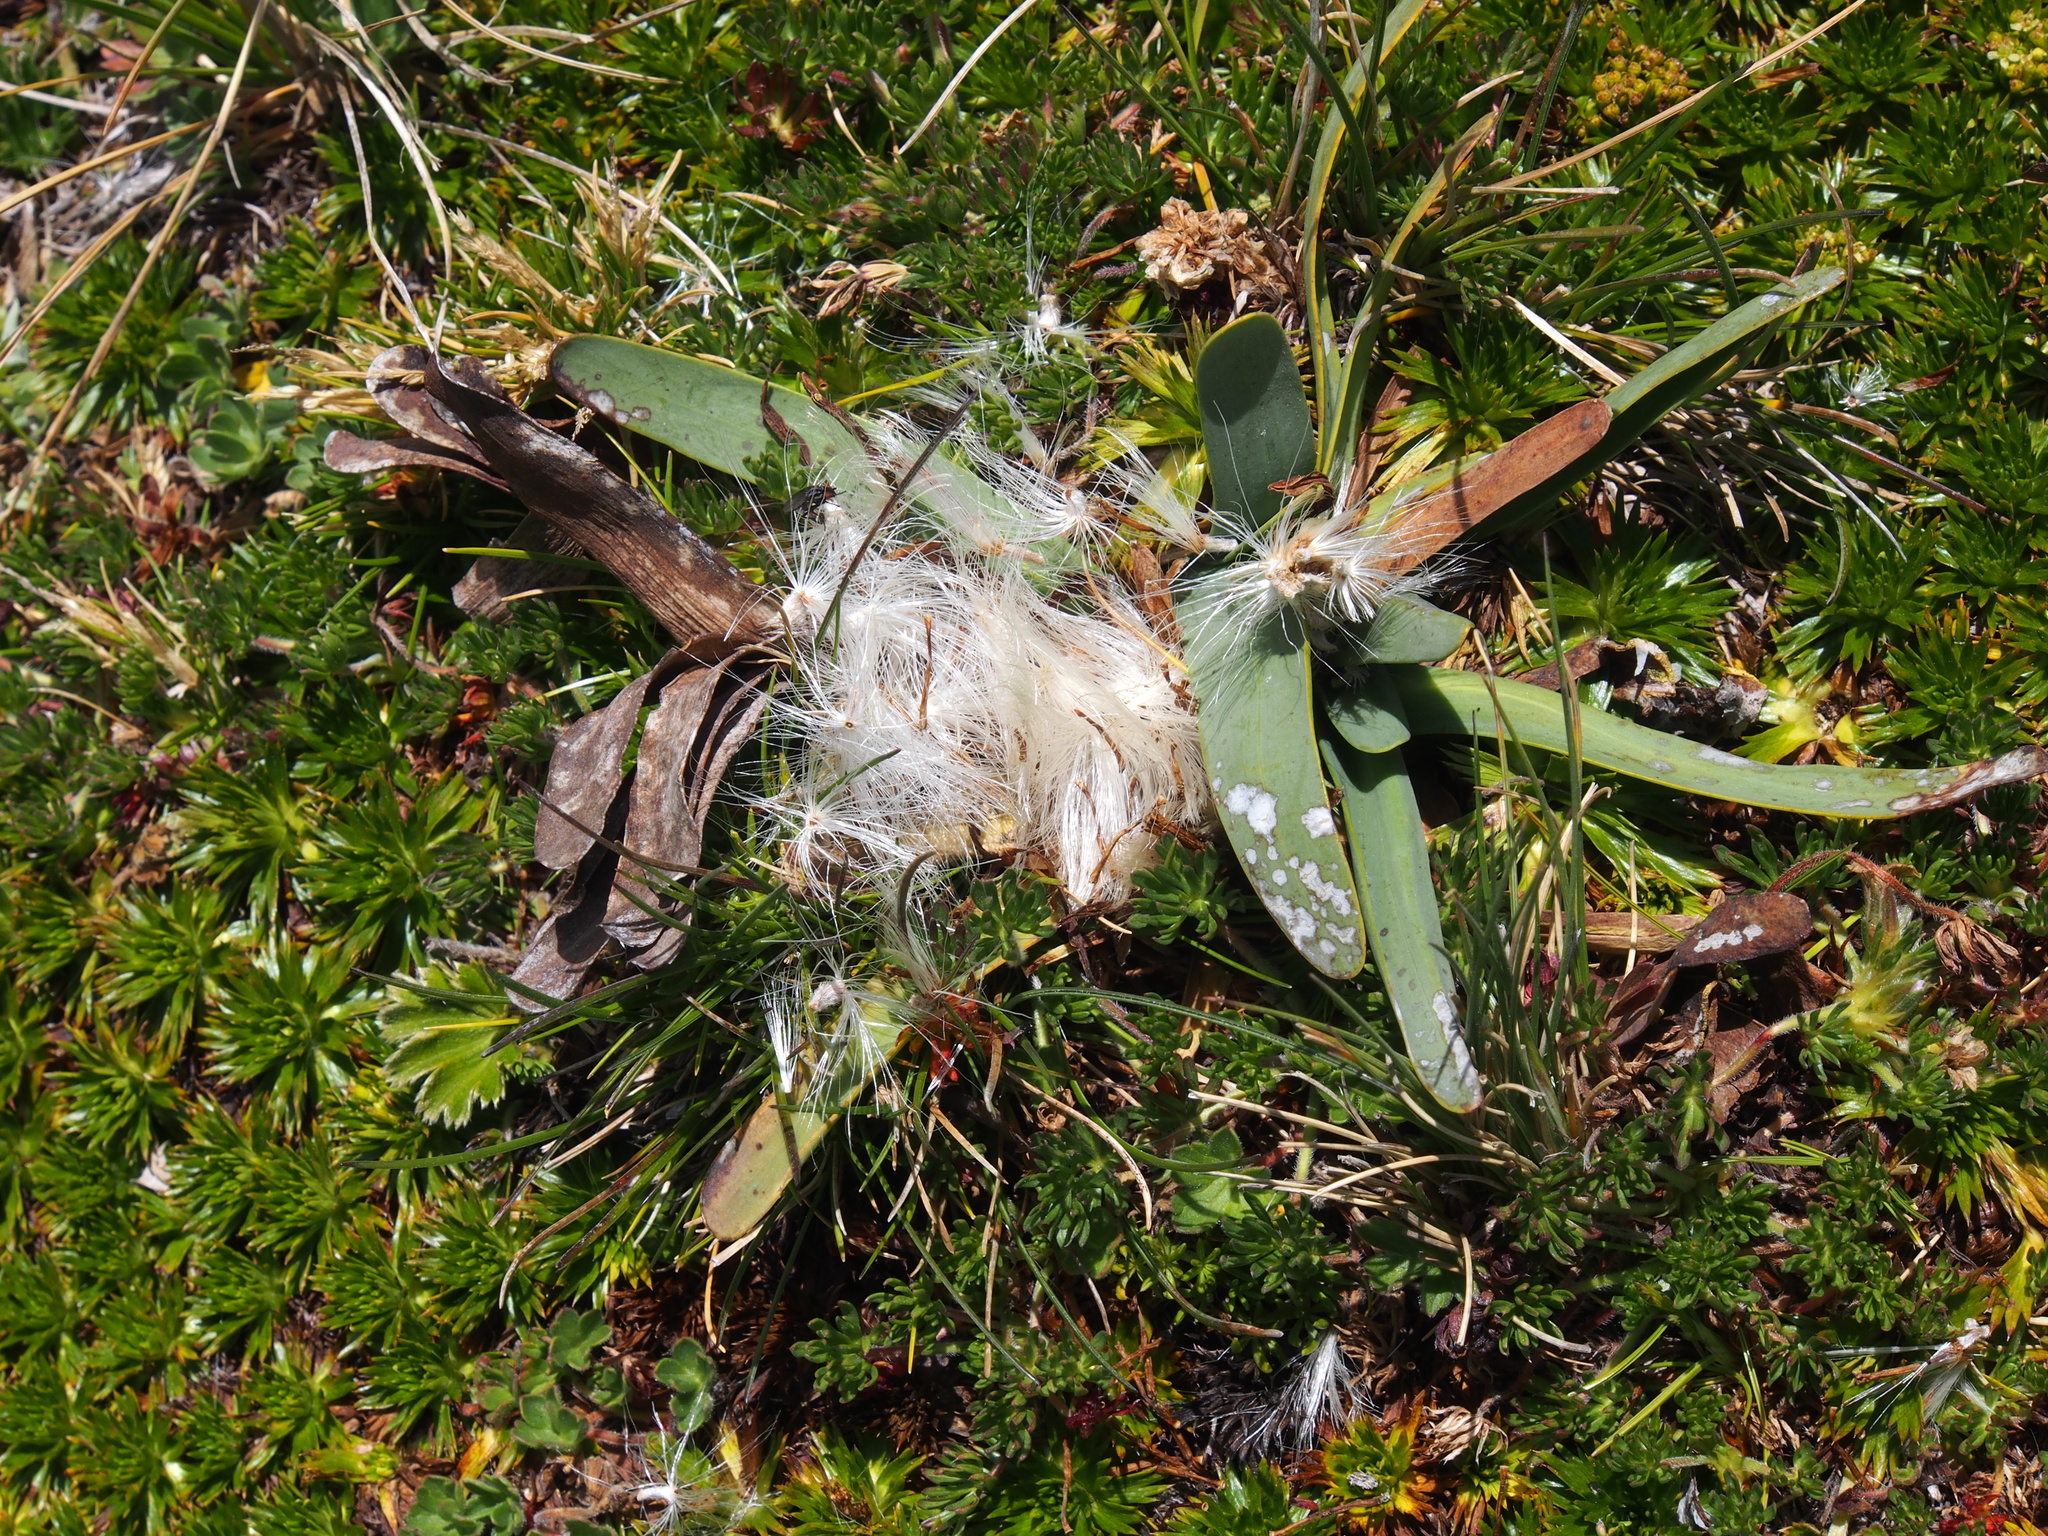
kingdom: Plantae
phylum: Tracheophyta
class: Magnoliopsida
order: Asterales
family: Asteraceae
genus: Rockhausenia
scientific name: Rockhausenia nubigena
